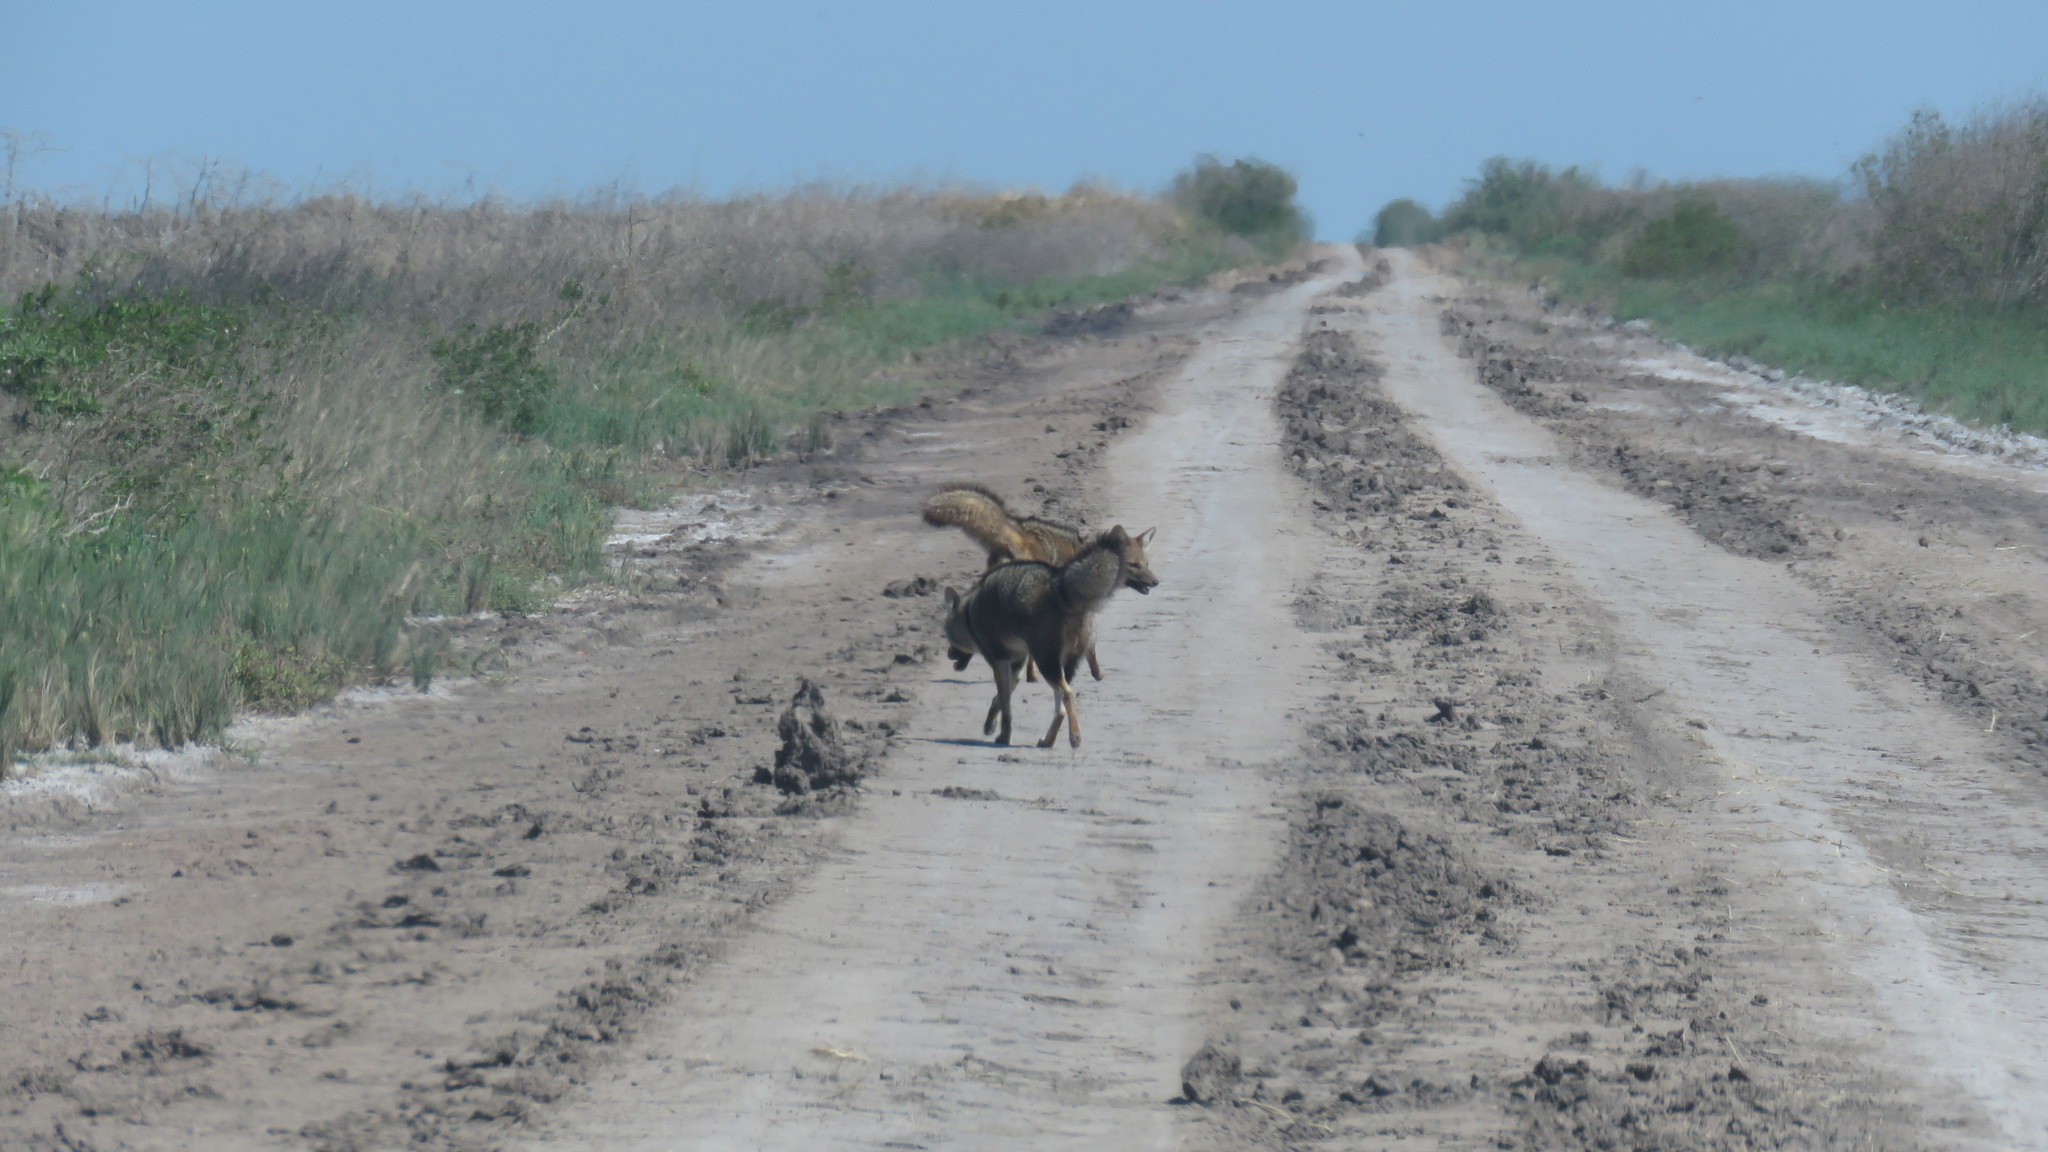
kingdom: Animalia
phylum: Chordata
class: Mammalia
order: Carnivora
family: Canidae
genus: Lycalopex
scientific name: Lycalopex gymnocercus
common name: Pampas fox
